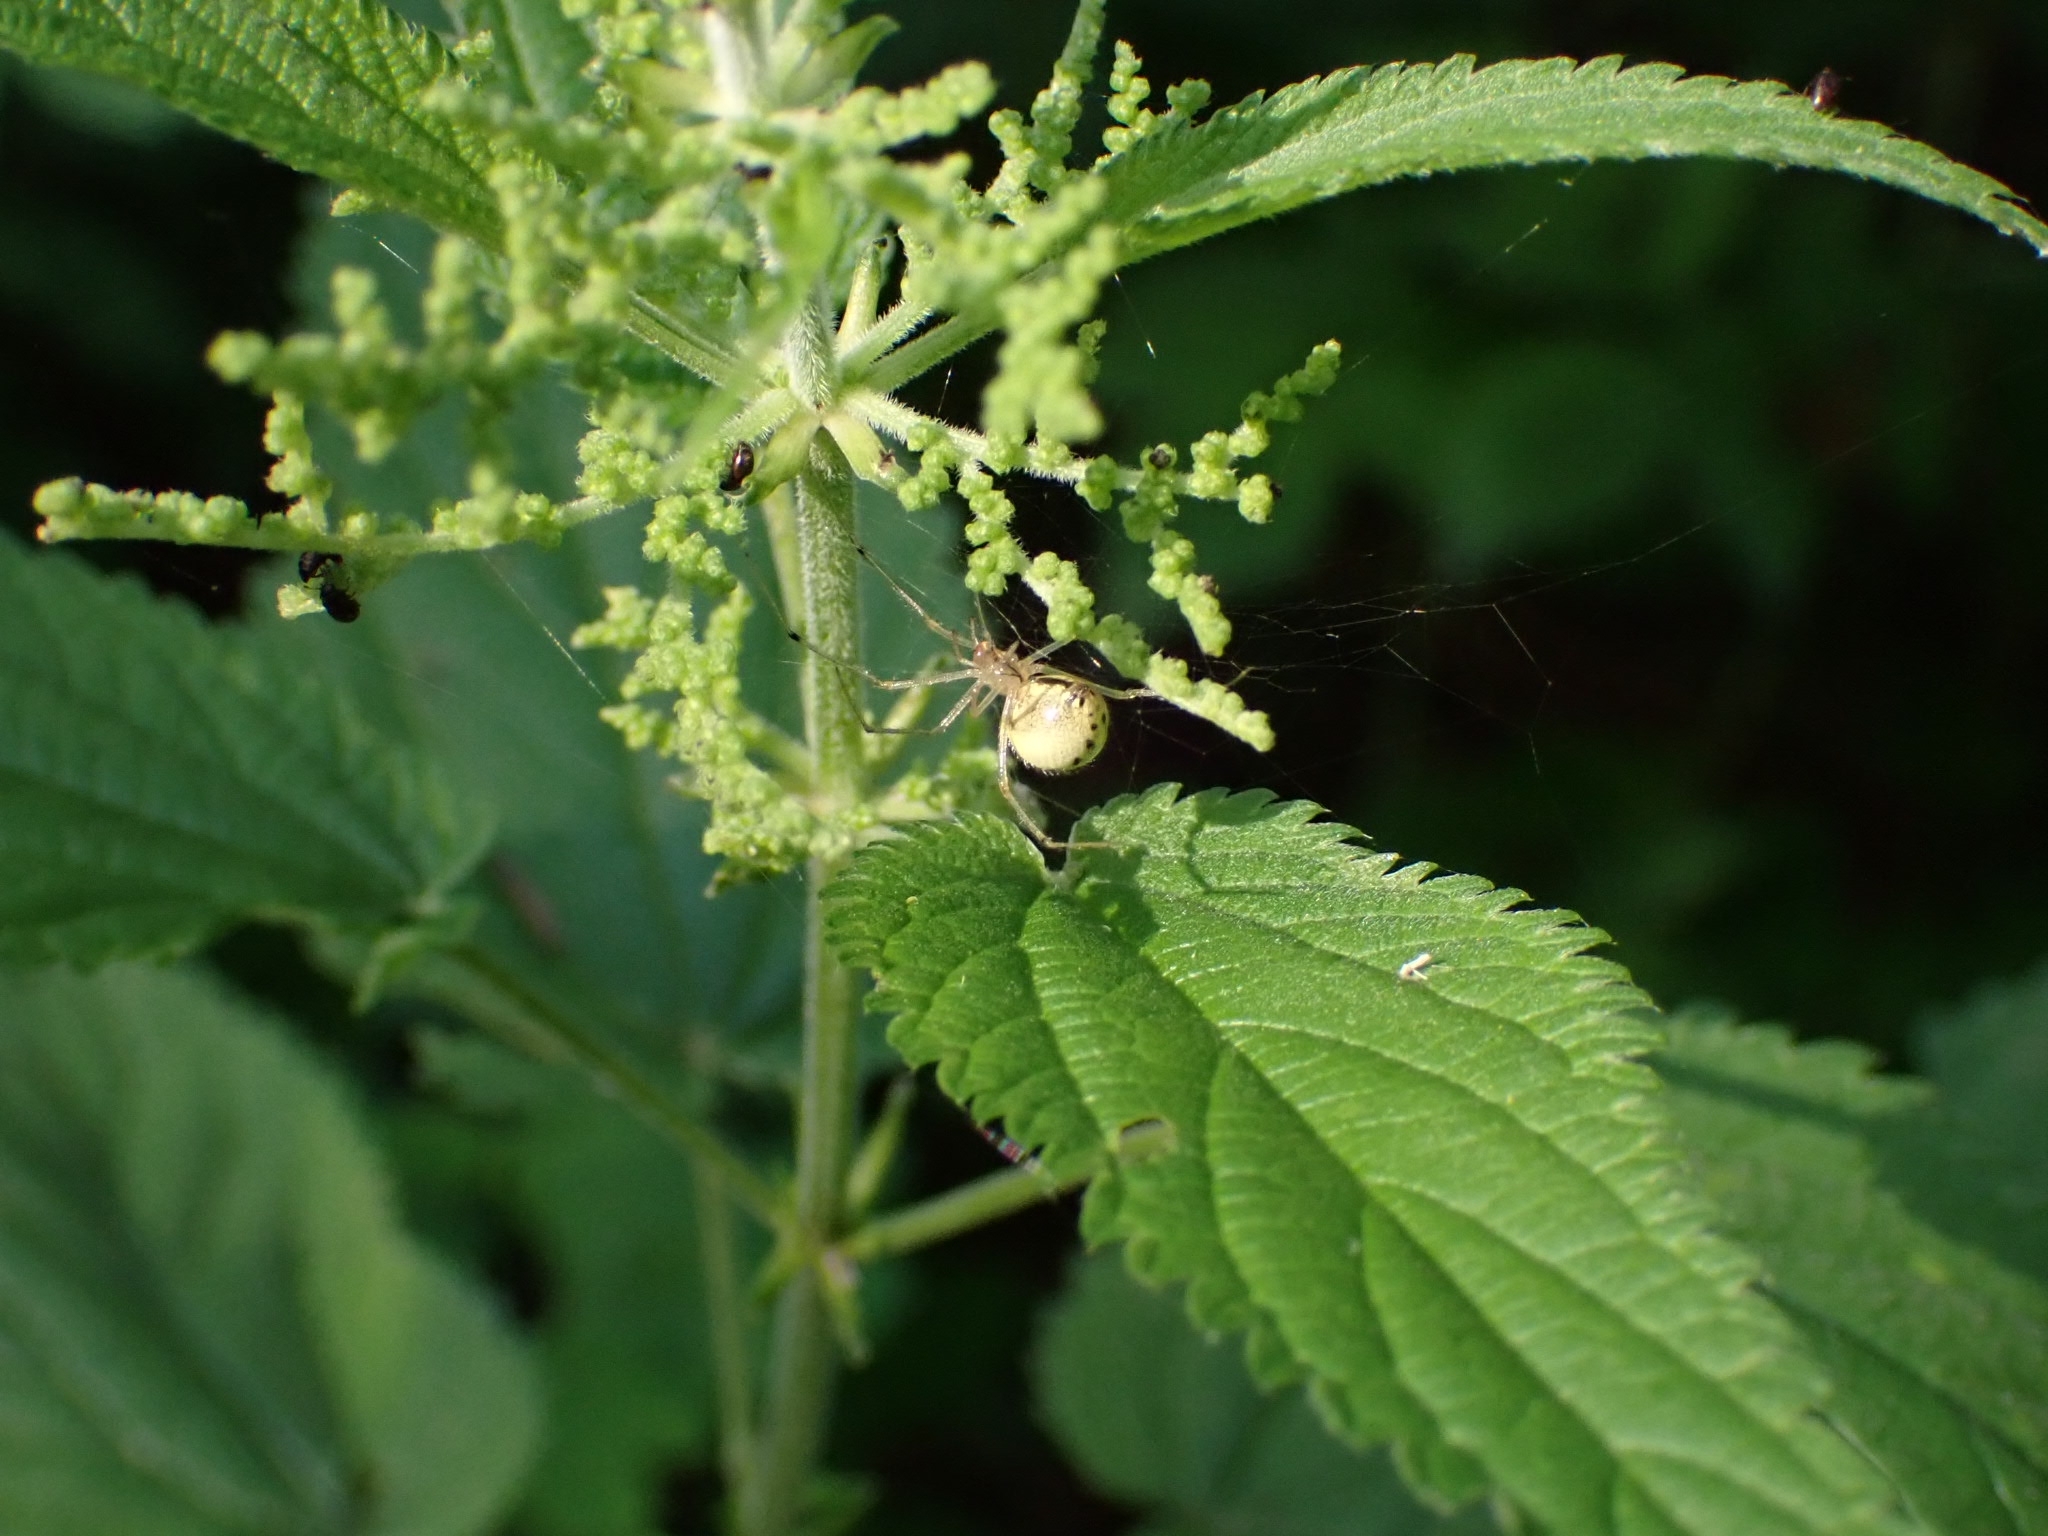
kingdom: Animalia
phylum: Arthropoda
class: Arachnida
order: Araneae
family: Theridiidae
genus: Enoplognatha
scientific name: Enoplognatha ovata
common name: Common candy-striped spider
